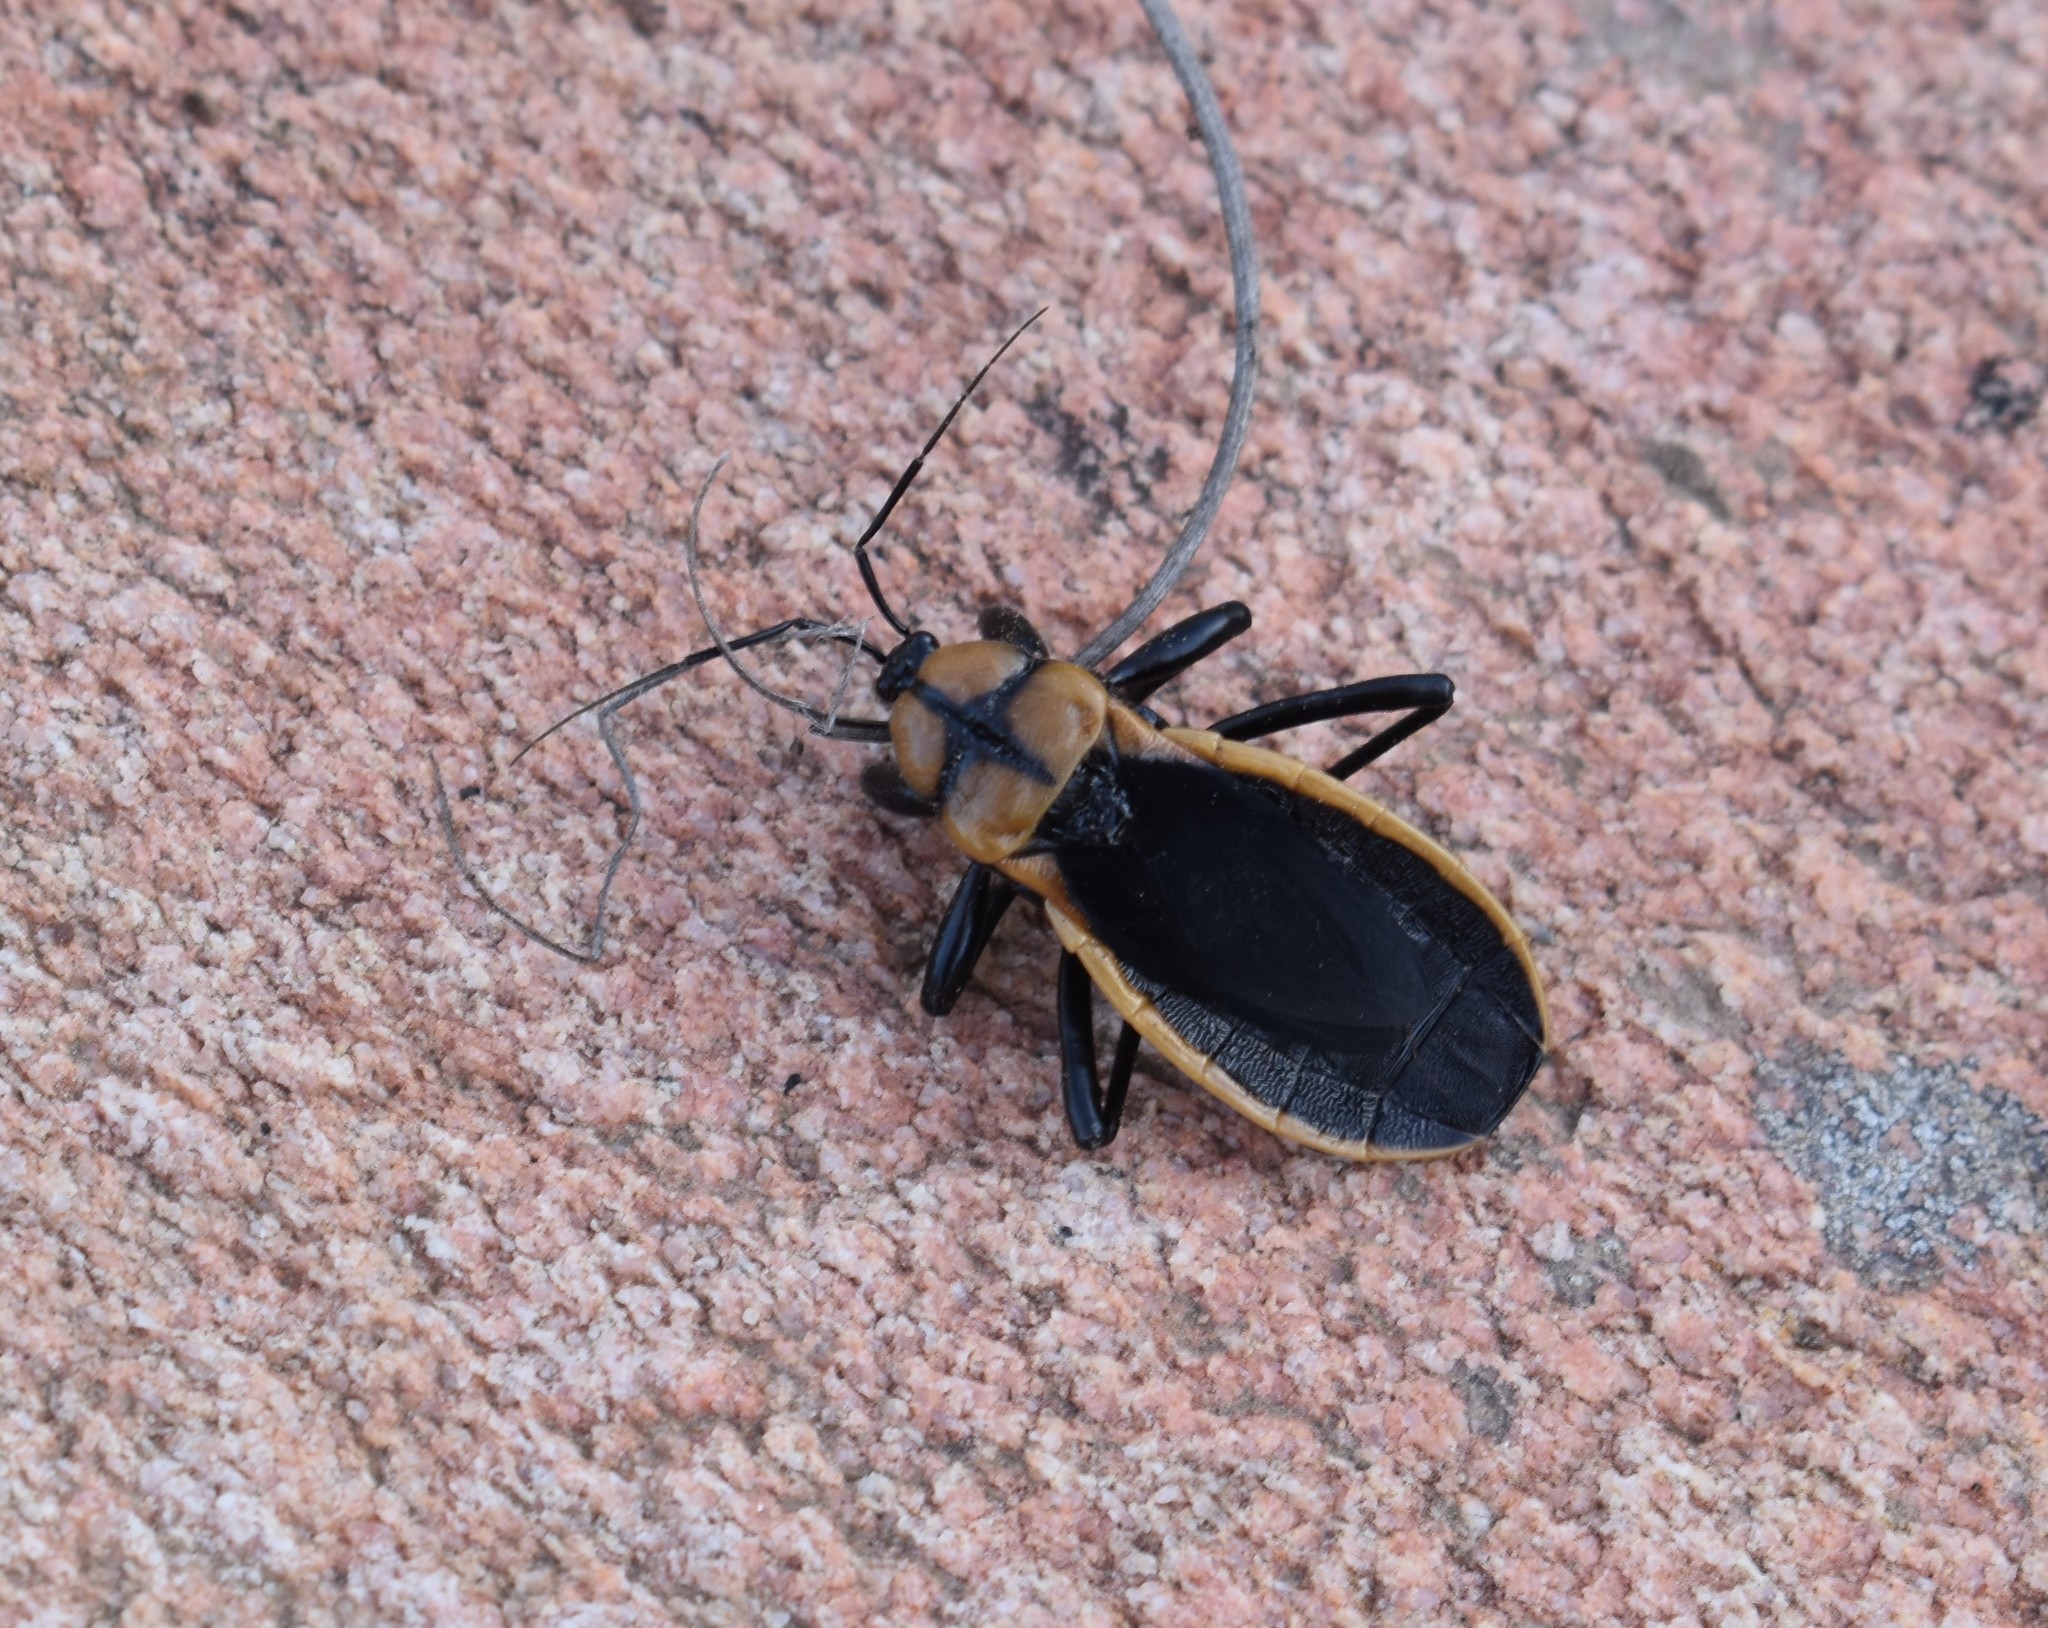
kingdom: Animalia
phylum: Arthropoda
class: Insecta
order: Hemiptera
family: Reduviidae
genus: Ectrichodia
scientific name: Ectrichodia crux
